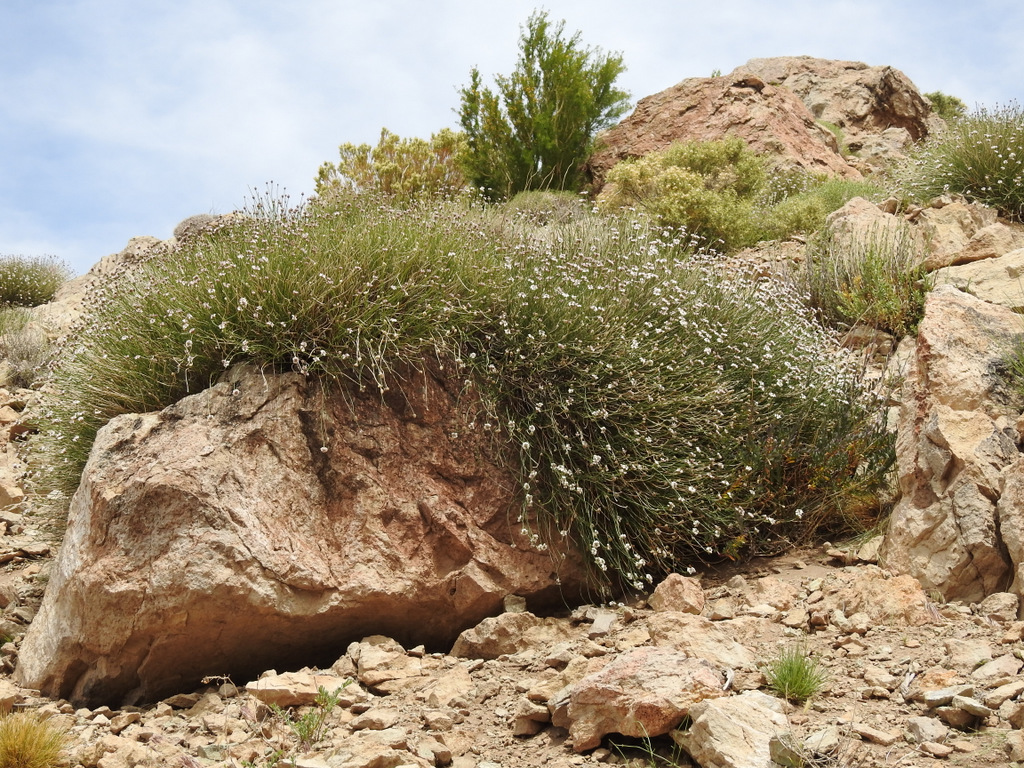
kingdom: Plantae
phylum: Tracheophyta
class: Magnoliopsida
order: Lamiales
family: Verbenaceae
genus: Junellia
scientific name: Junellia spathulata
